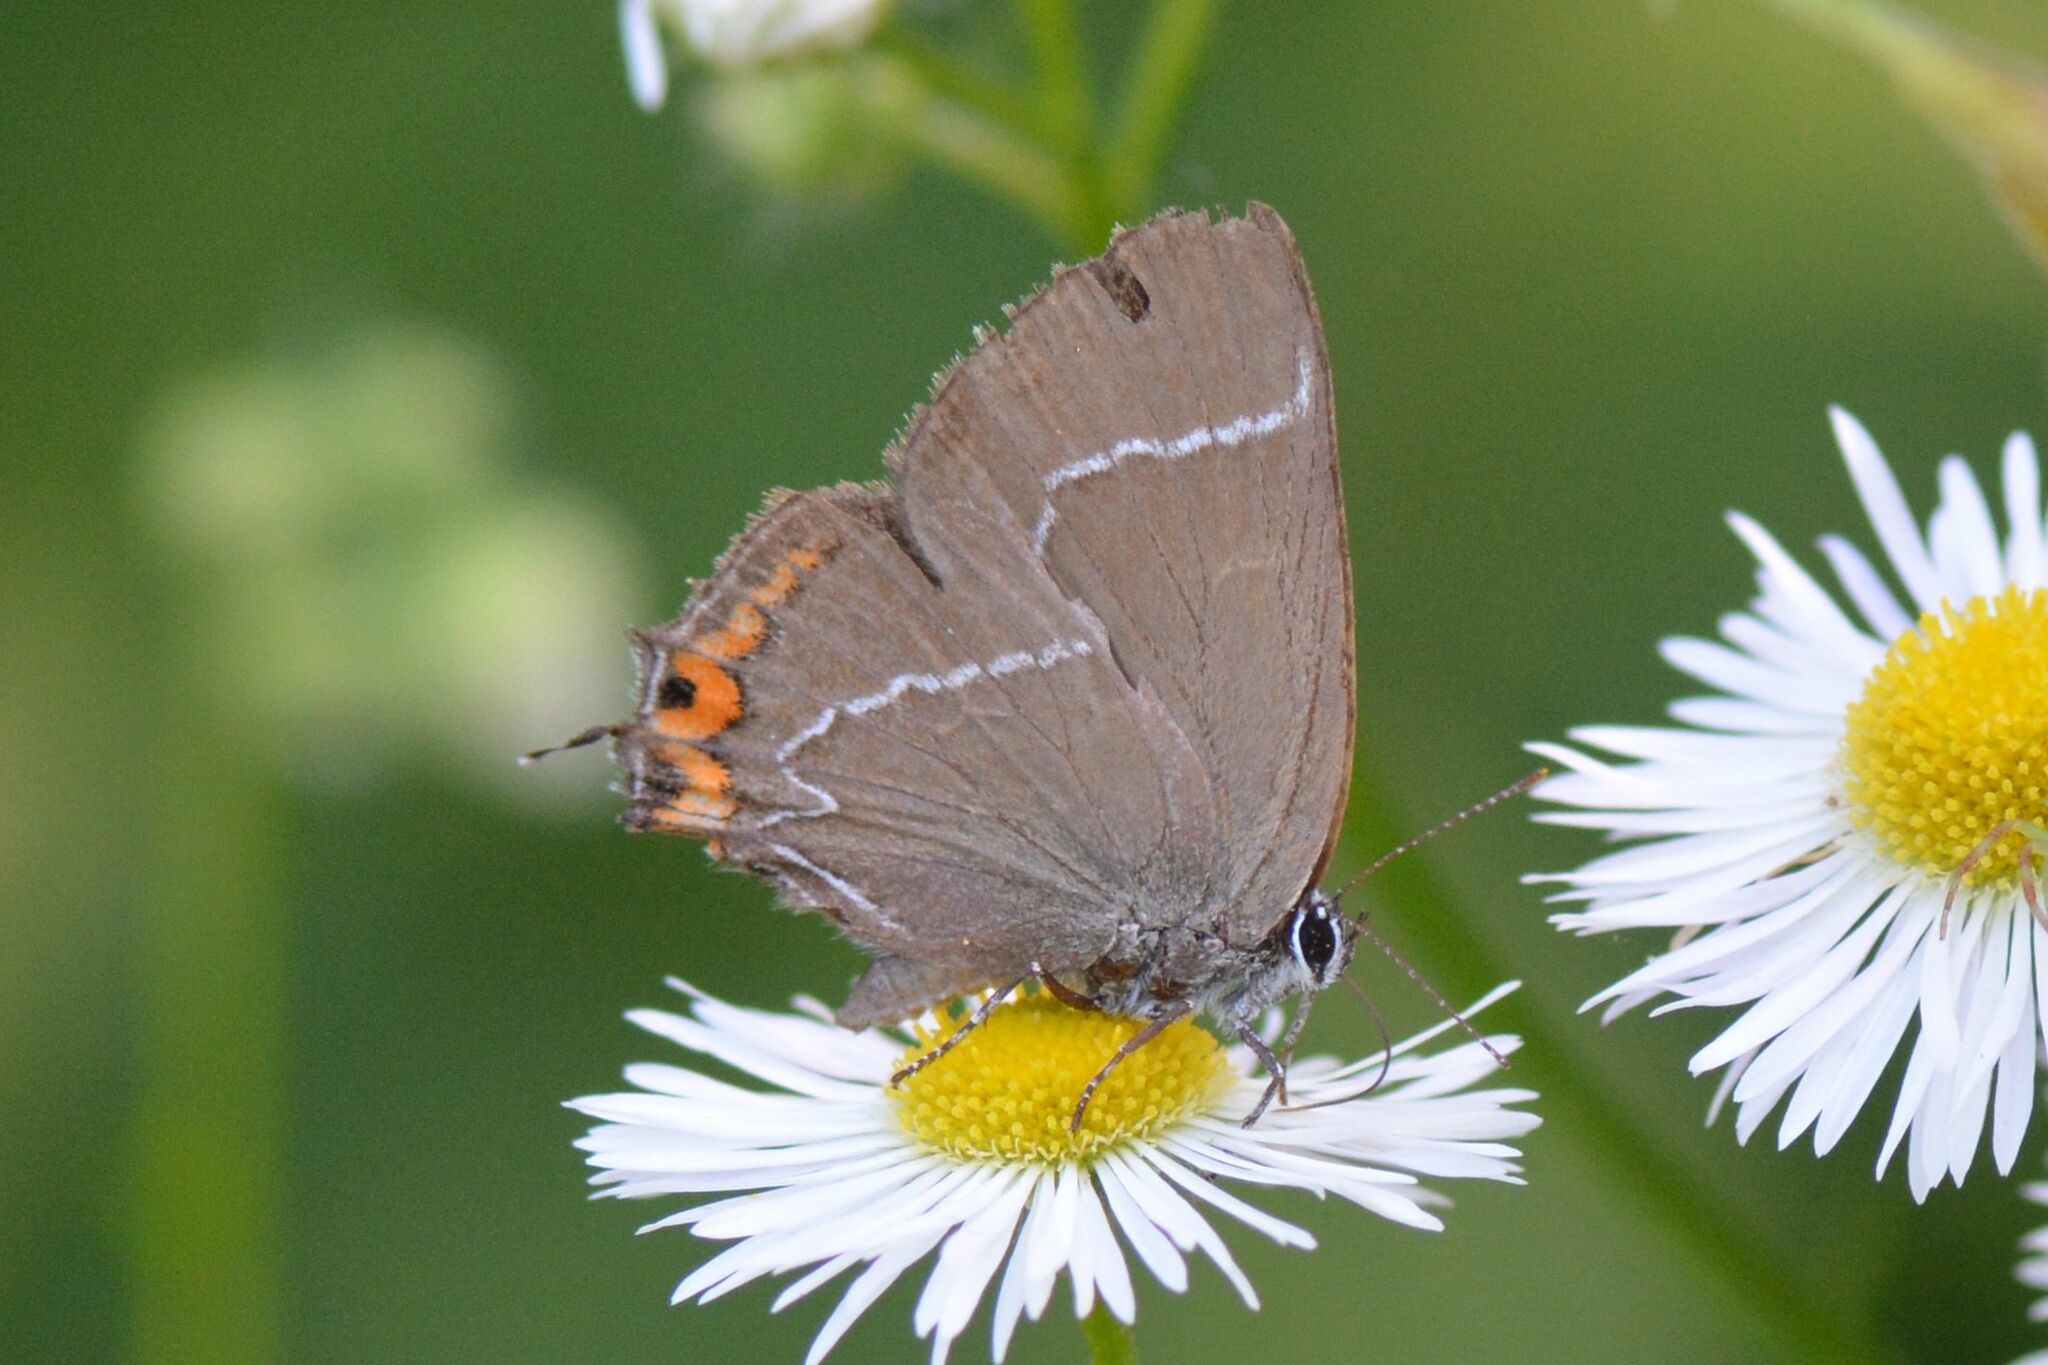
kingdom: Animalia
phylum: Arthropoda
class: Insecta
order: Lepidoptera
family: Lycaenidae
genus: Satyrium
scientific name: Satyrium w-album
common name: White-letter hairstreak
